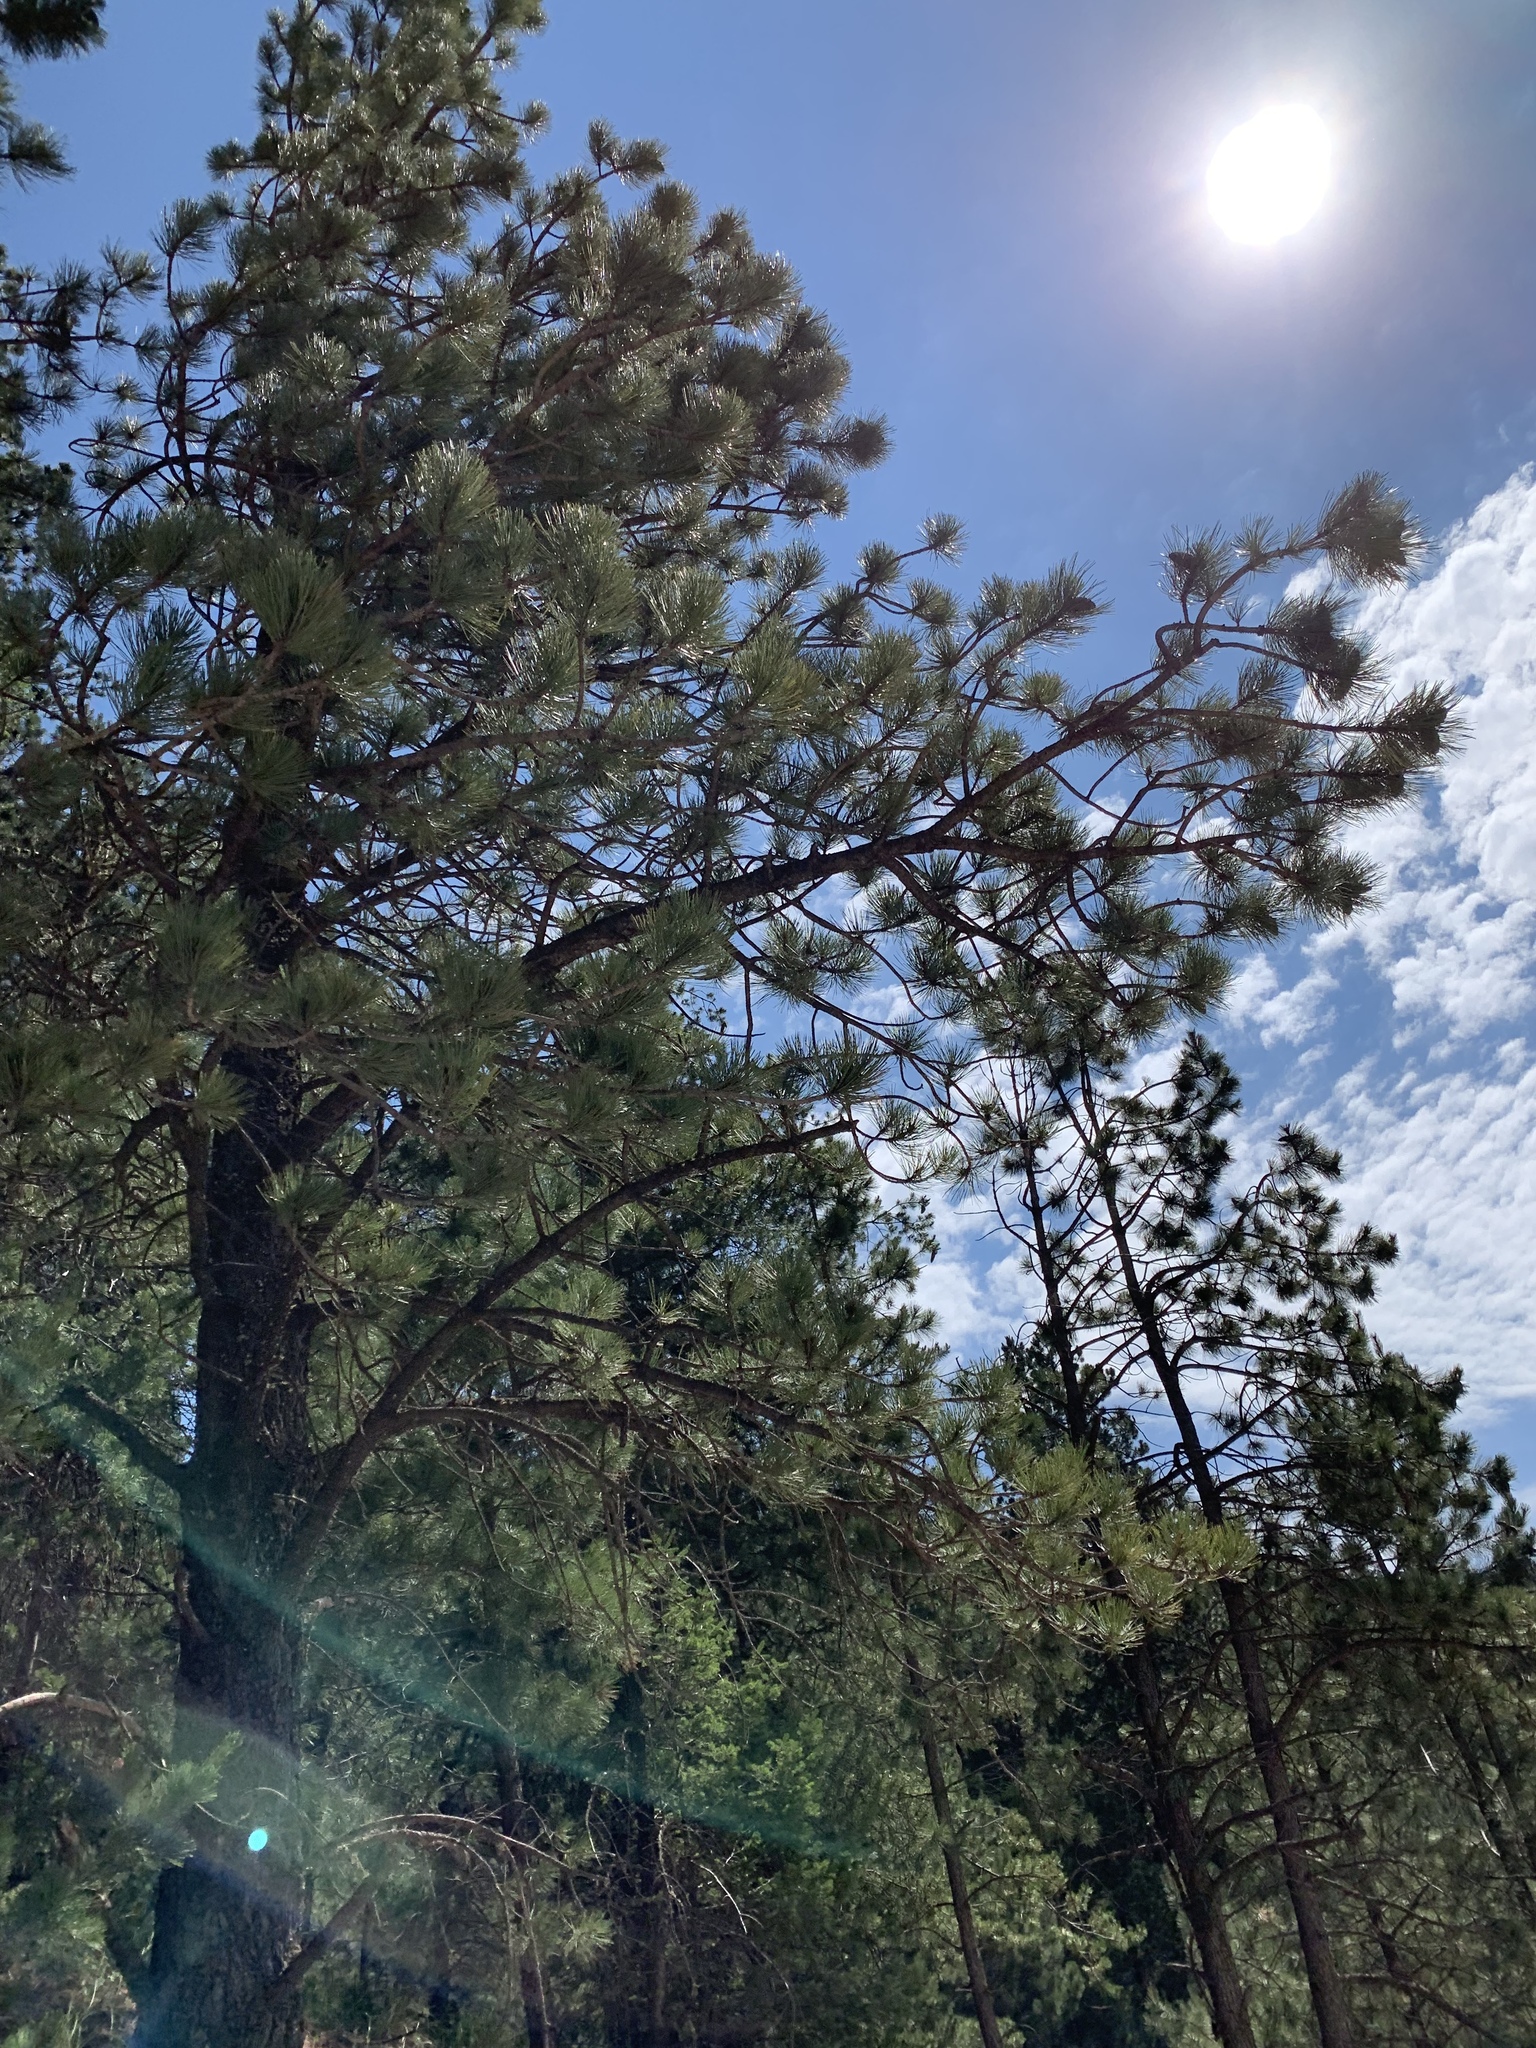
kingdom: Plantae
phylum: Tracheophyta
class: Pinopsida
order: Pinales
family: Pinaceae
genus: Pinus
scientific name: Pinus ponderosa
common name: Western yellow-pine
